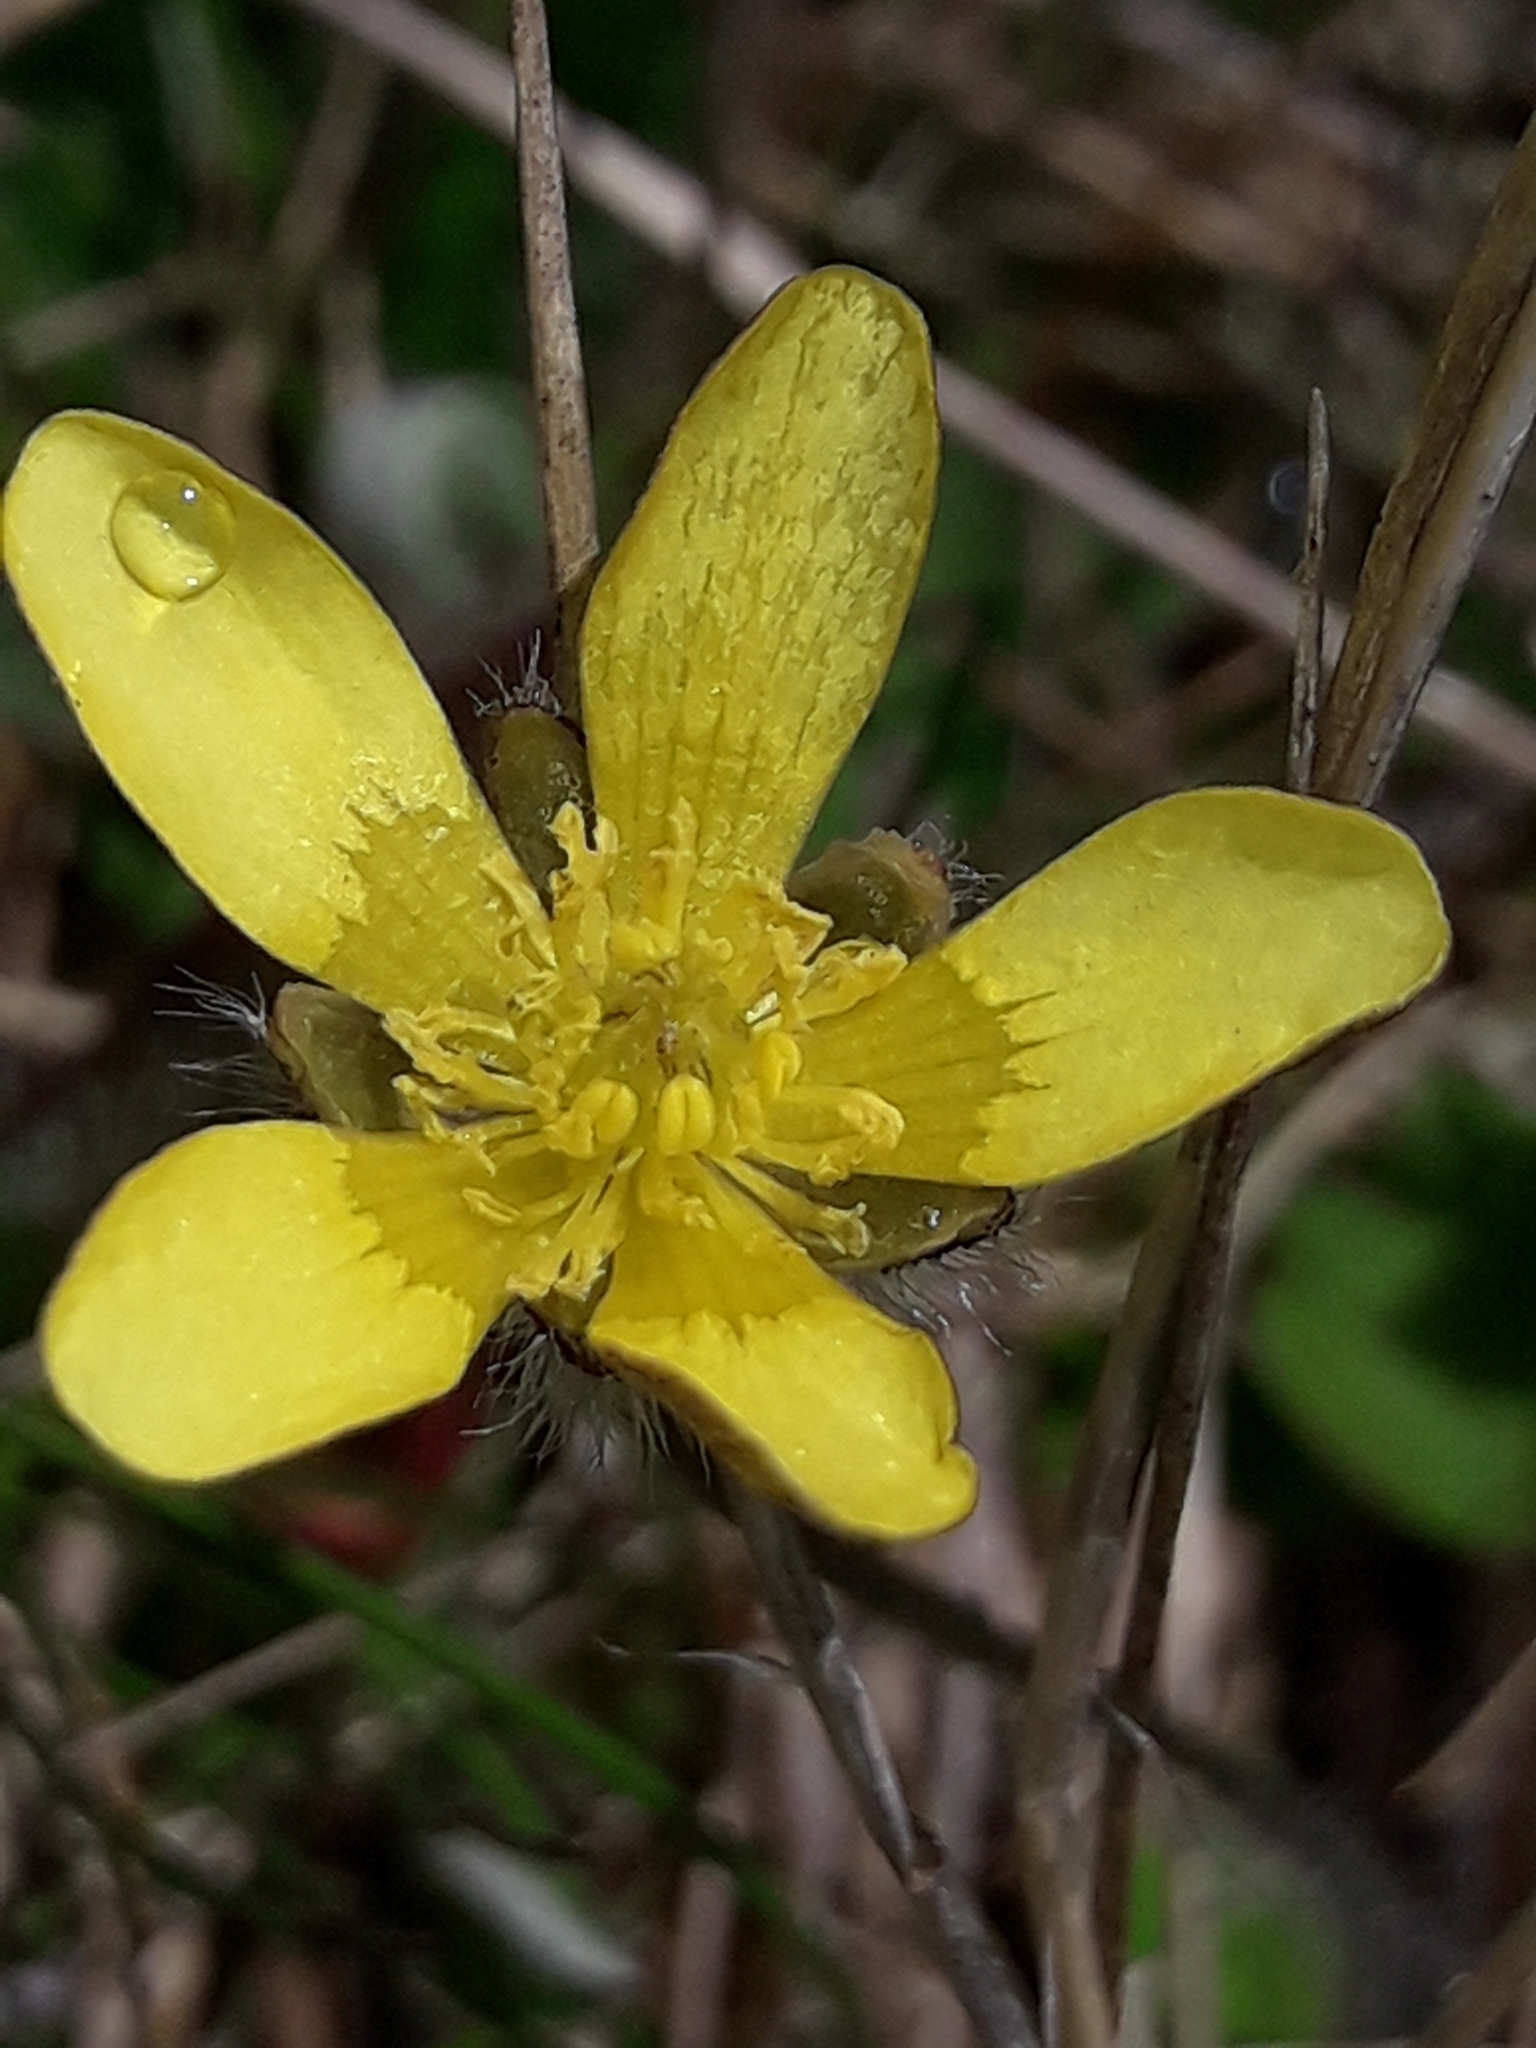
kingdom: Plantae
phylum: Tracheophyta
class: Magnoliopsida
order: Ranunculales
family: Ranunculaceae
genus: Ranunculus
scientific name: Ranunculus multiscapus
